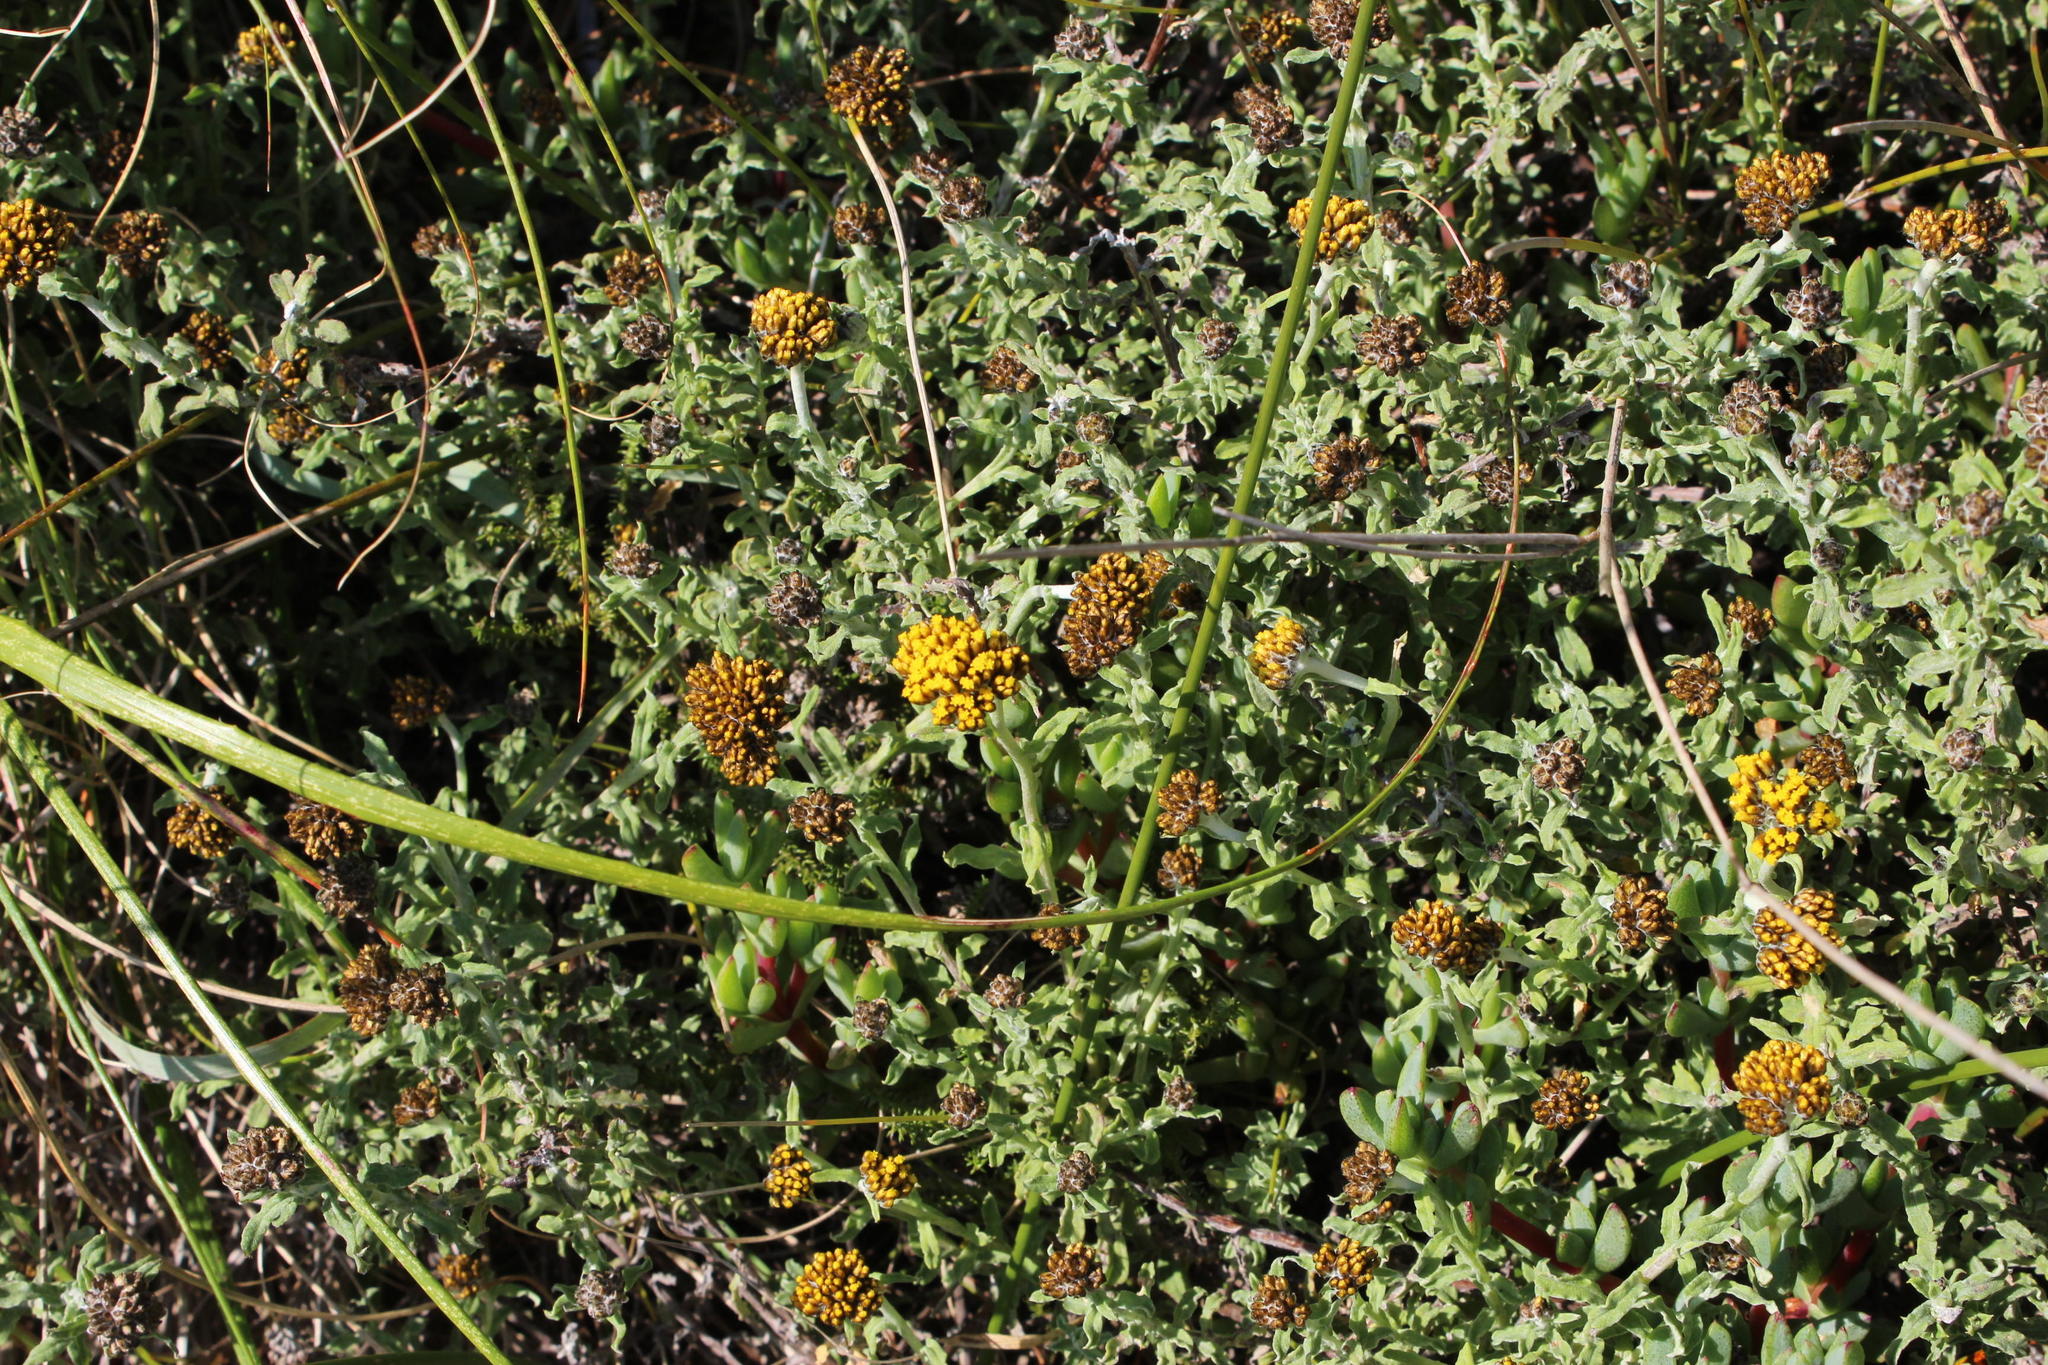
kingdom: Plantae
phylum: Tracheophyta
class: Magnoliopsida
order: Asterales
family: Asteraceae
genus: Helichrysum
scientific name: Helichrysum odoratissimum
